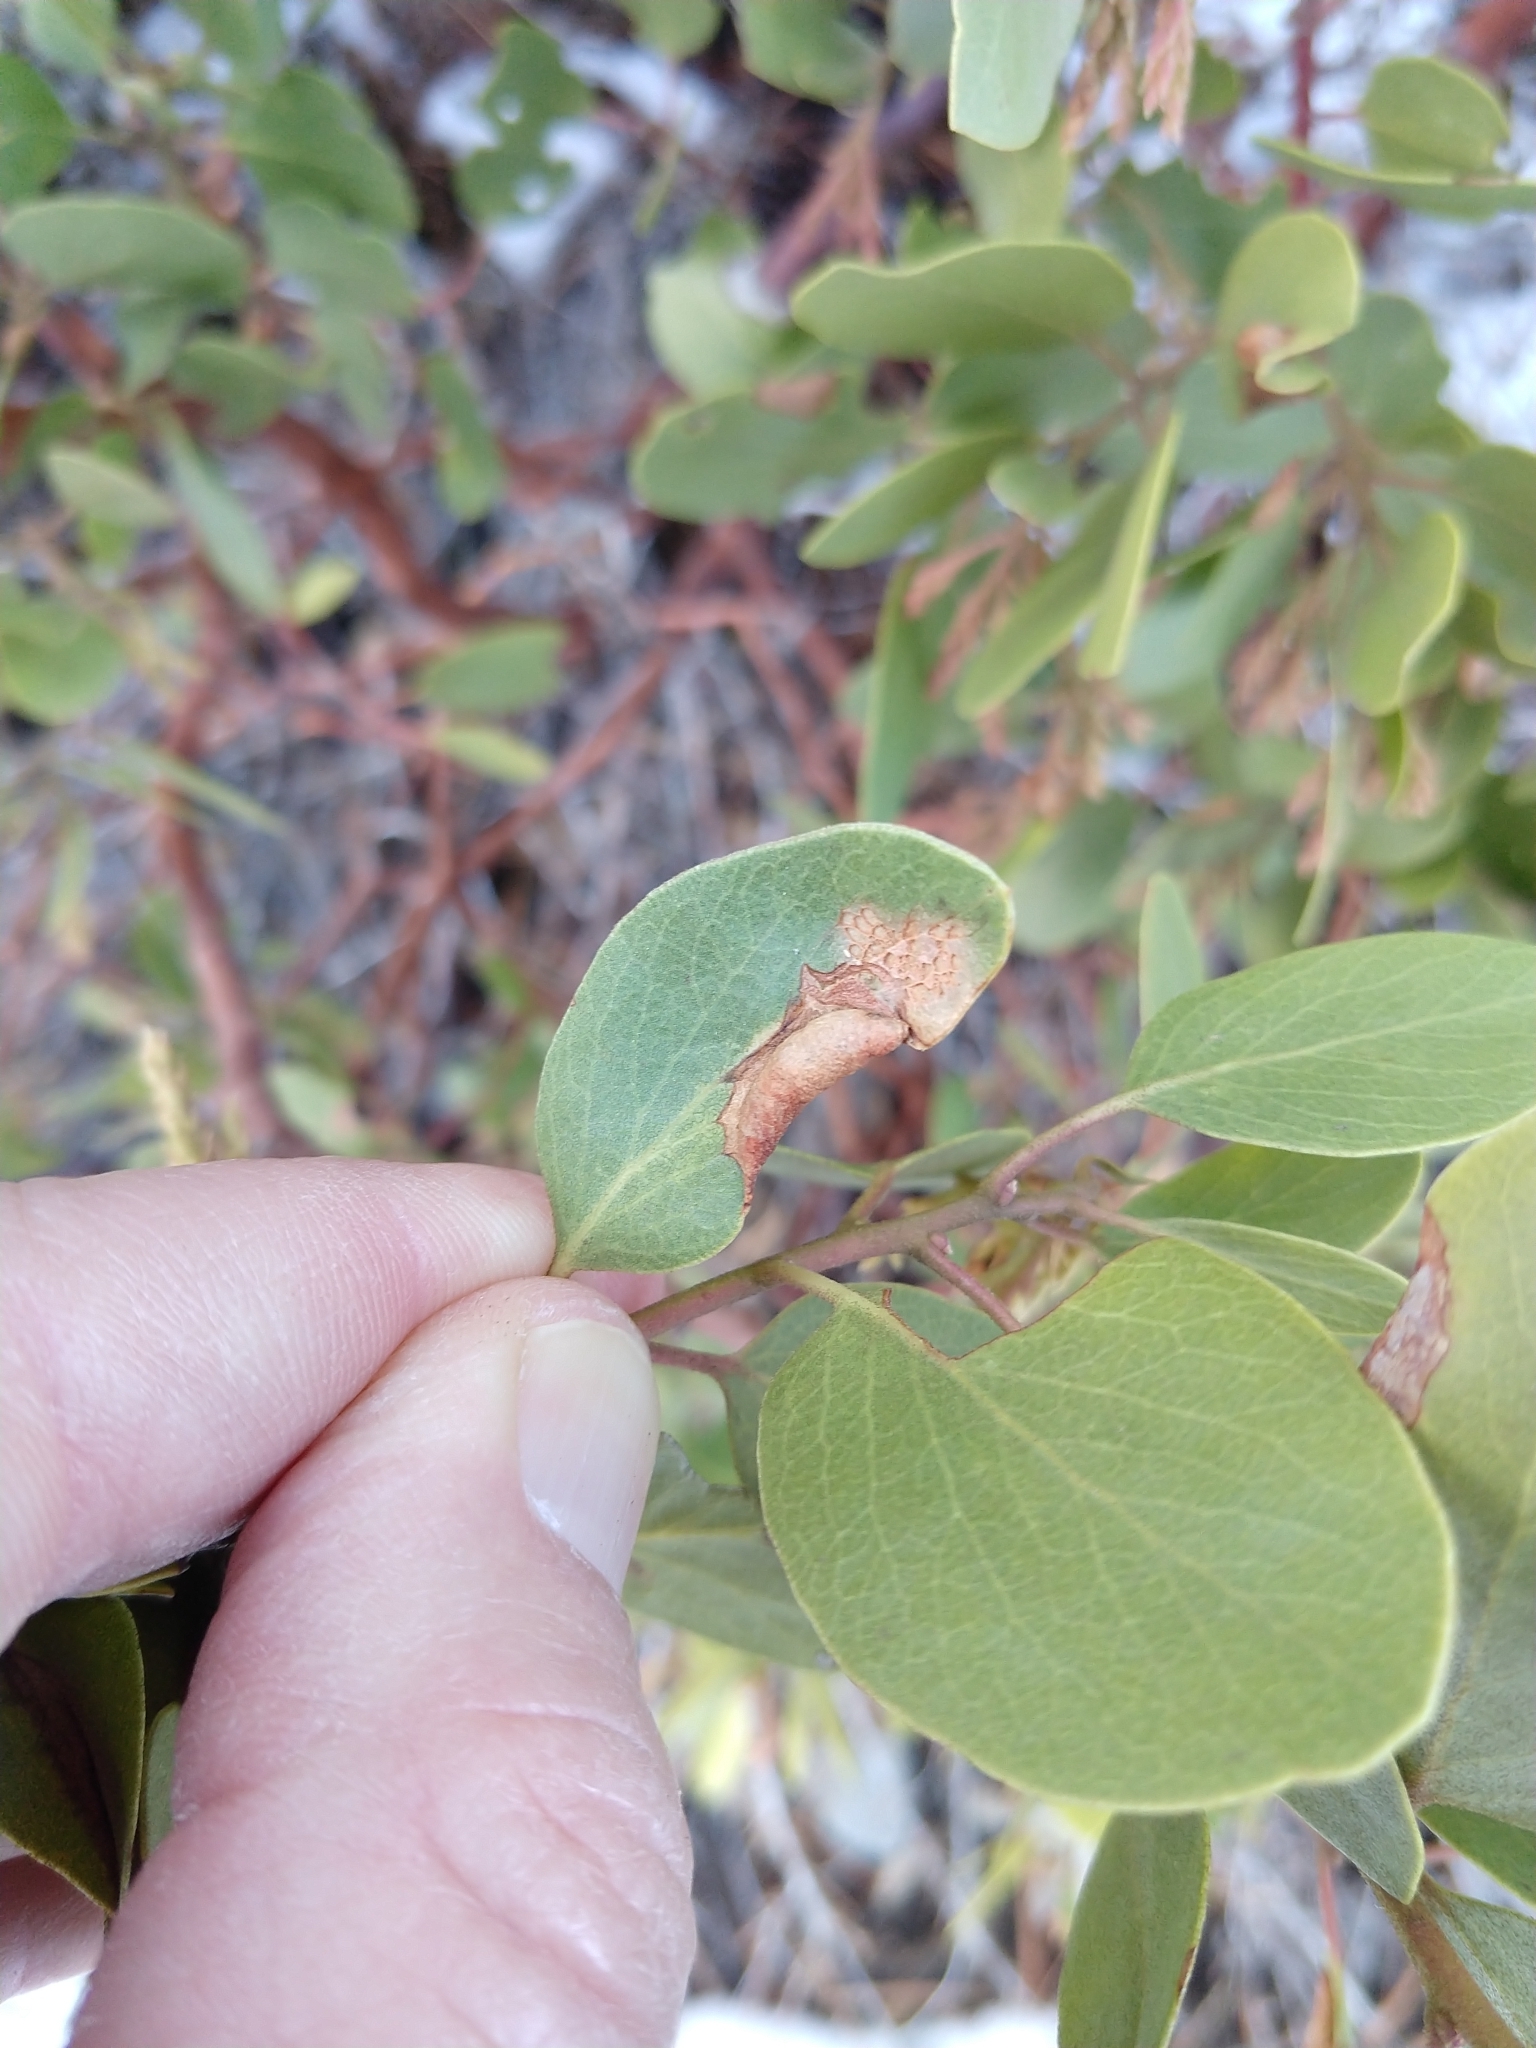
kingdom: Animalia
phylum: Arthropoda
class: Insecta
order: Hemiptera
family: Aphididae
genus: Tamalia
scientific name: Tamalia coweni
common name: Manzanita leafgall aphid
